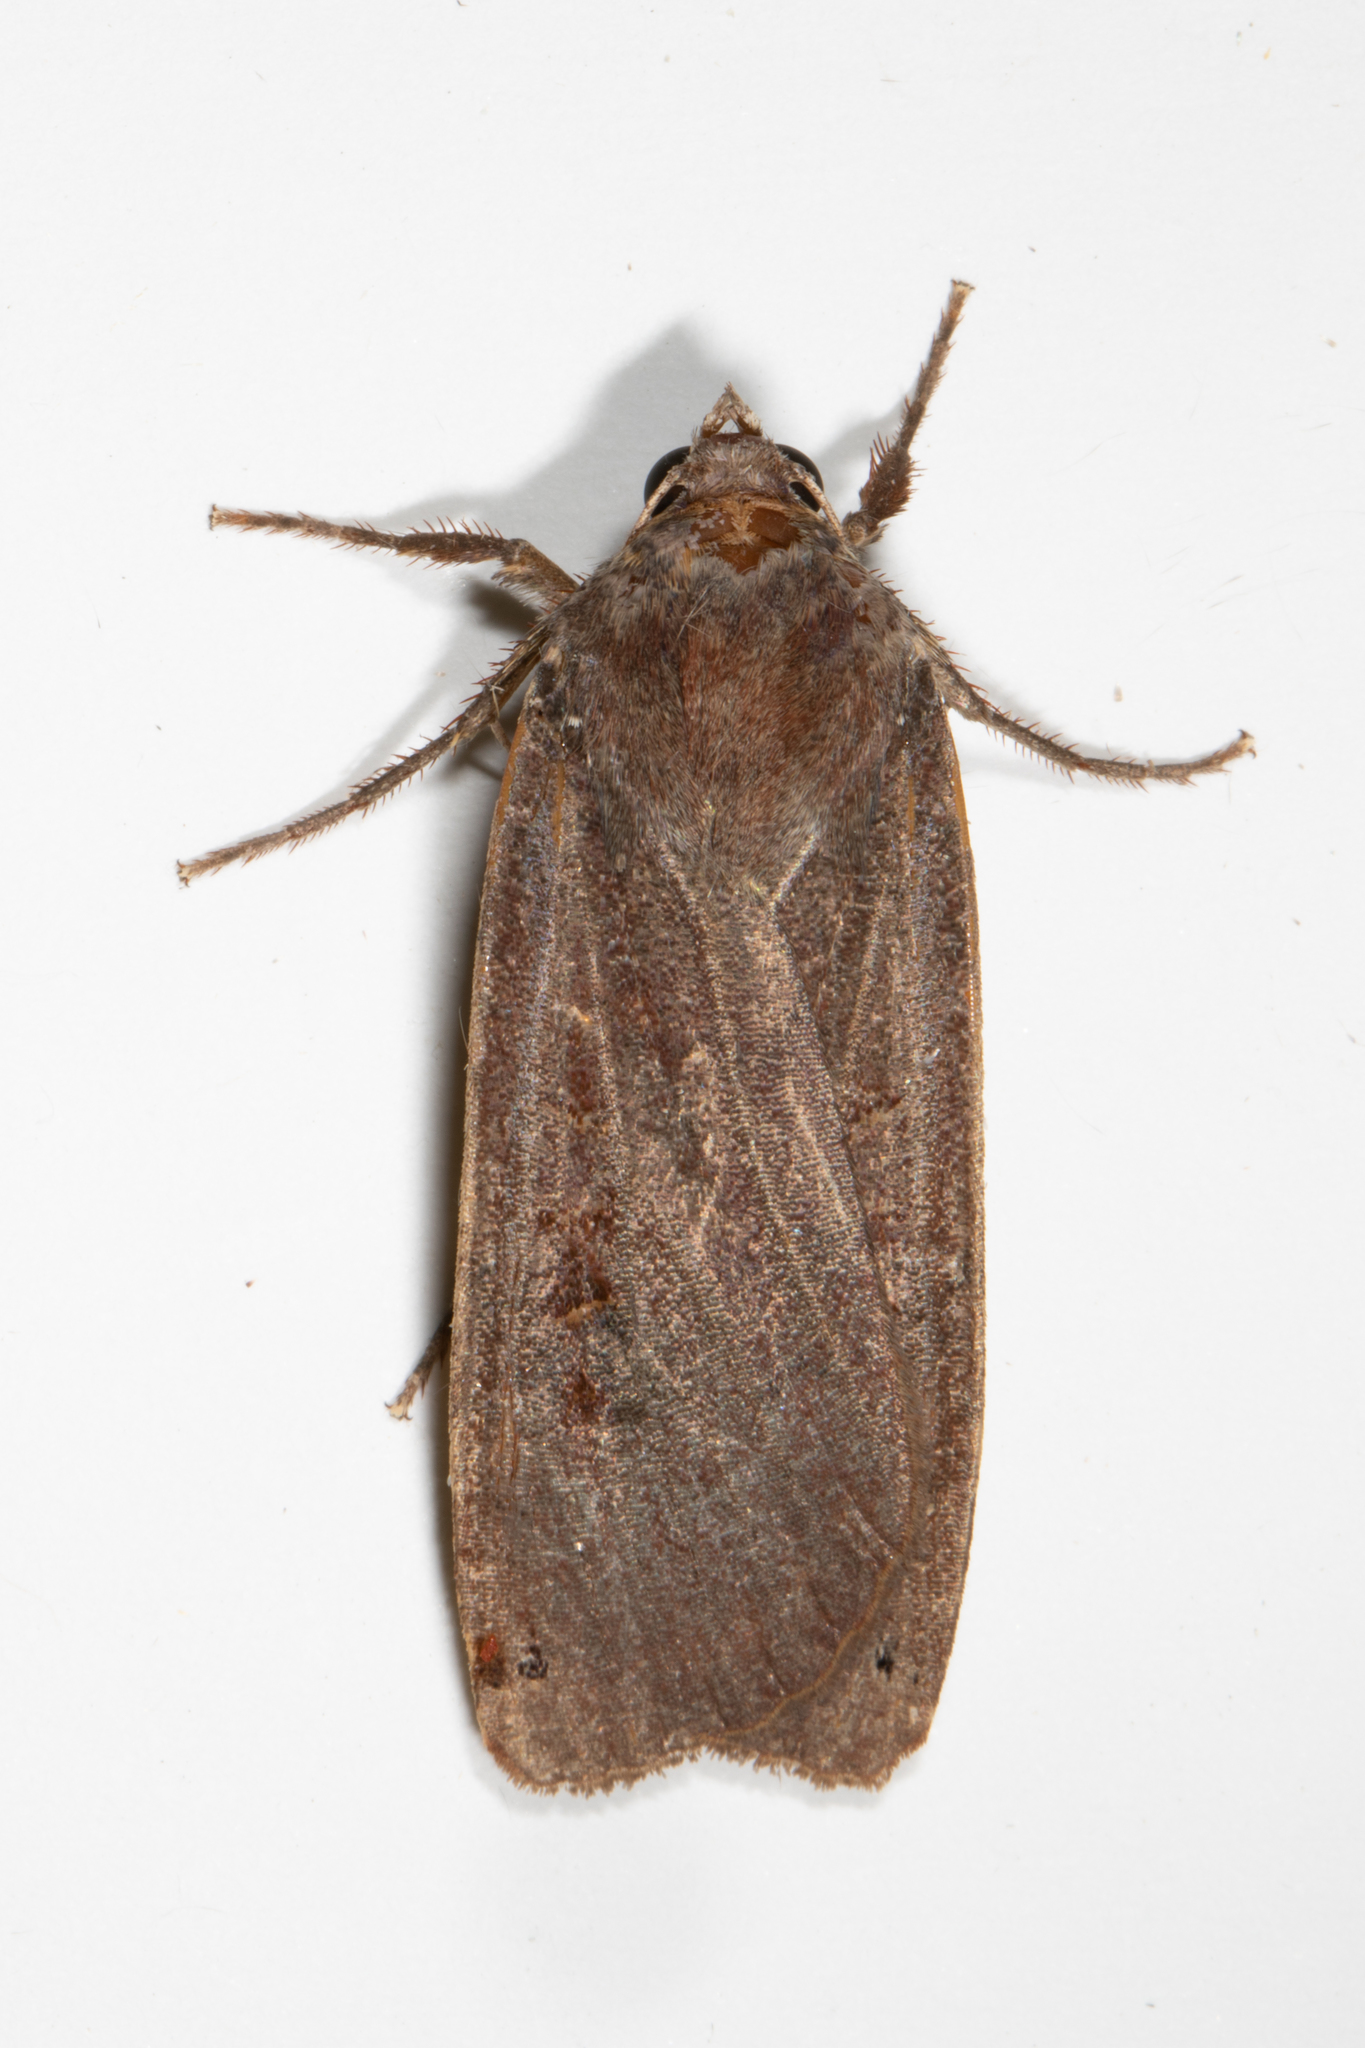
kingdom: Animalia
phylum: Arthropoda
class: Insecta
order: Lepidoptera
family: Noctuidae
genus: Noctua
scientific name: Noctua pronuba
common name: Large yellow underwing
